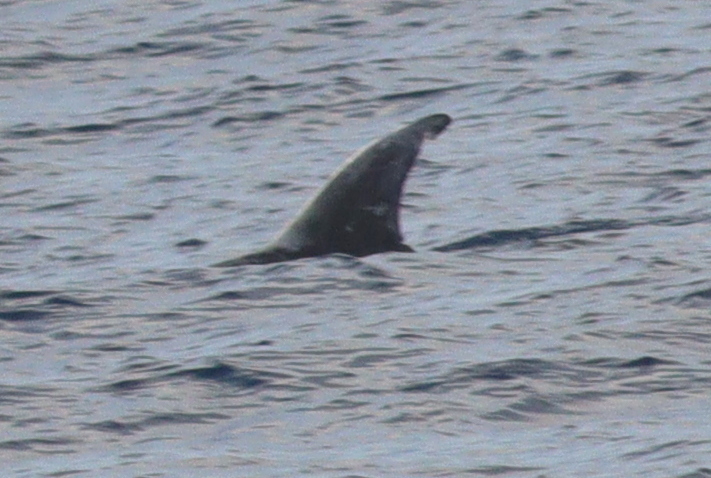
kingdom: Animalia
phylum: Chordata
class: Mammalia
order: Cetacea
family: Delphinidae
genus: Grampus
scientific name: Grampus griseus
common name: Risso's dolphin
